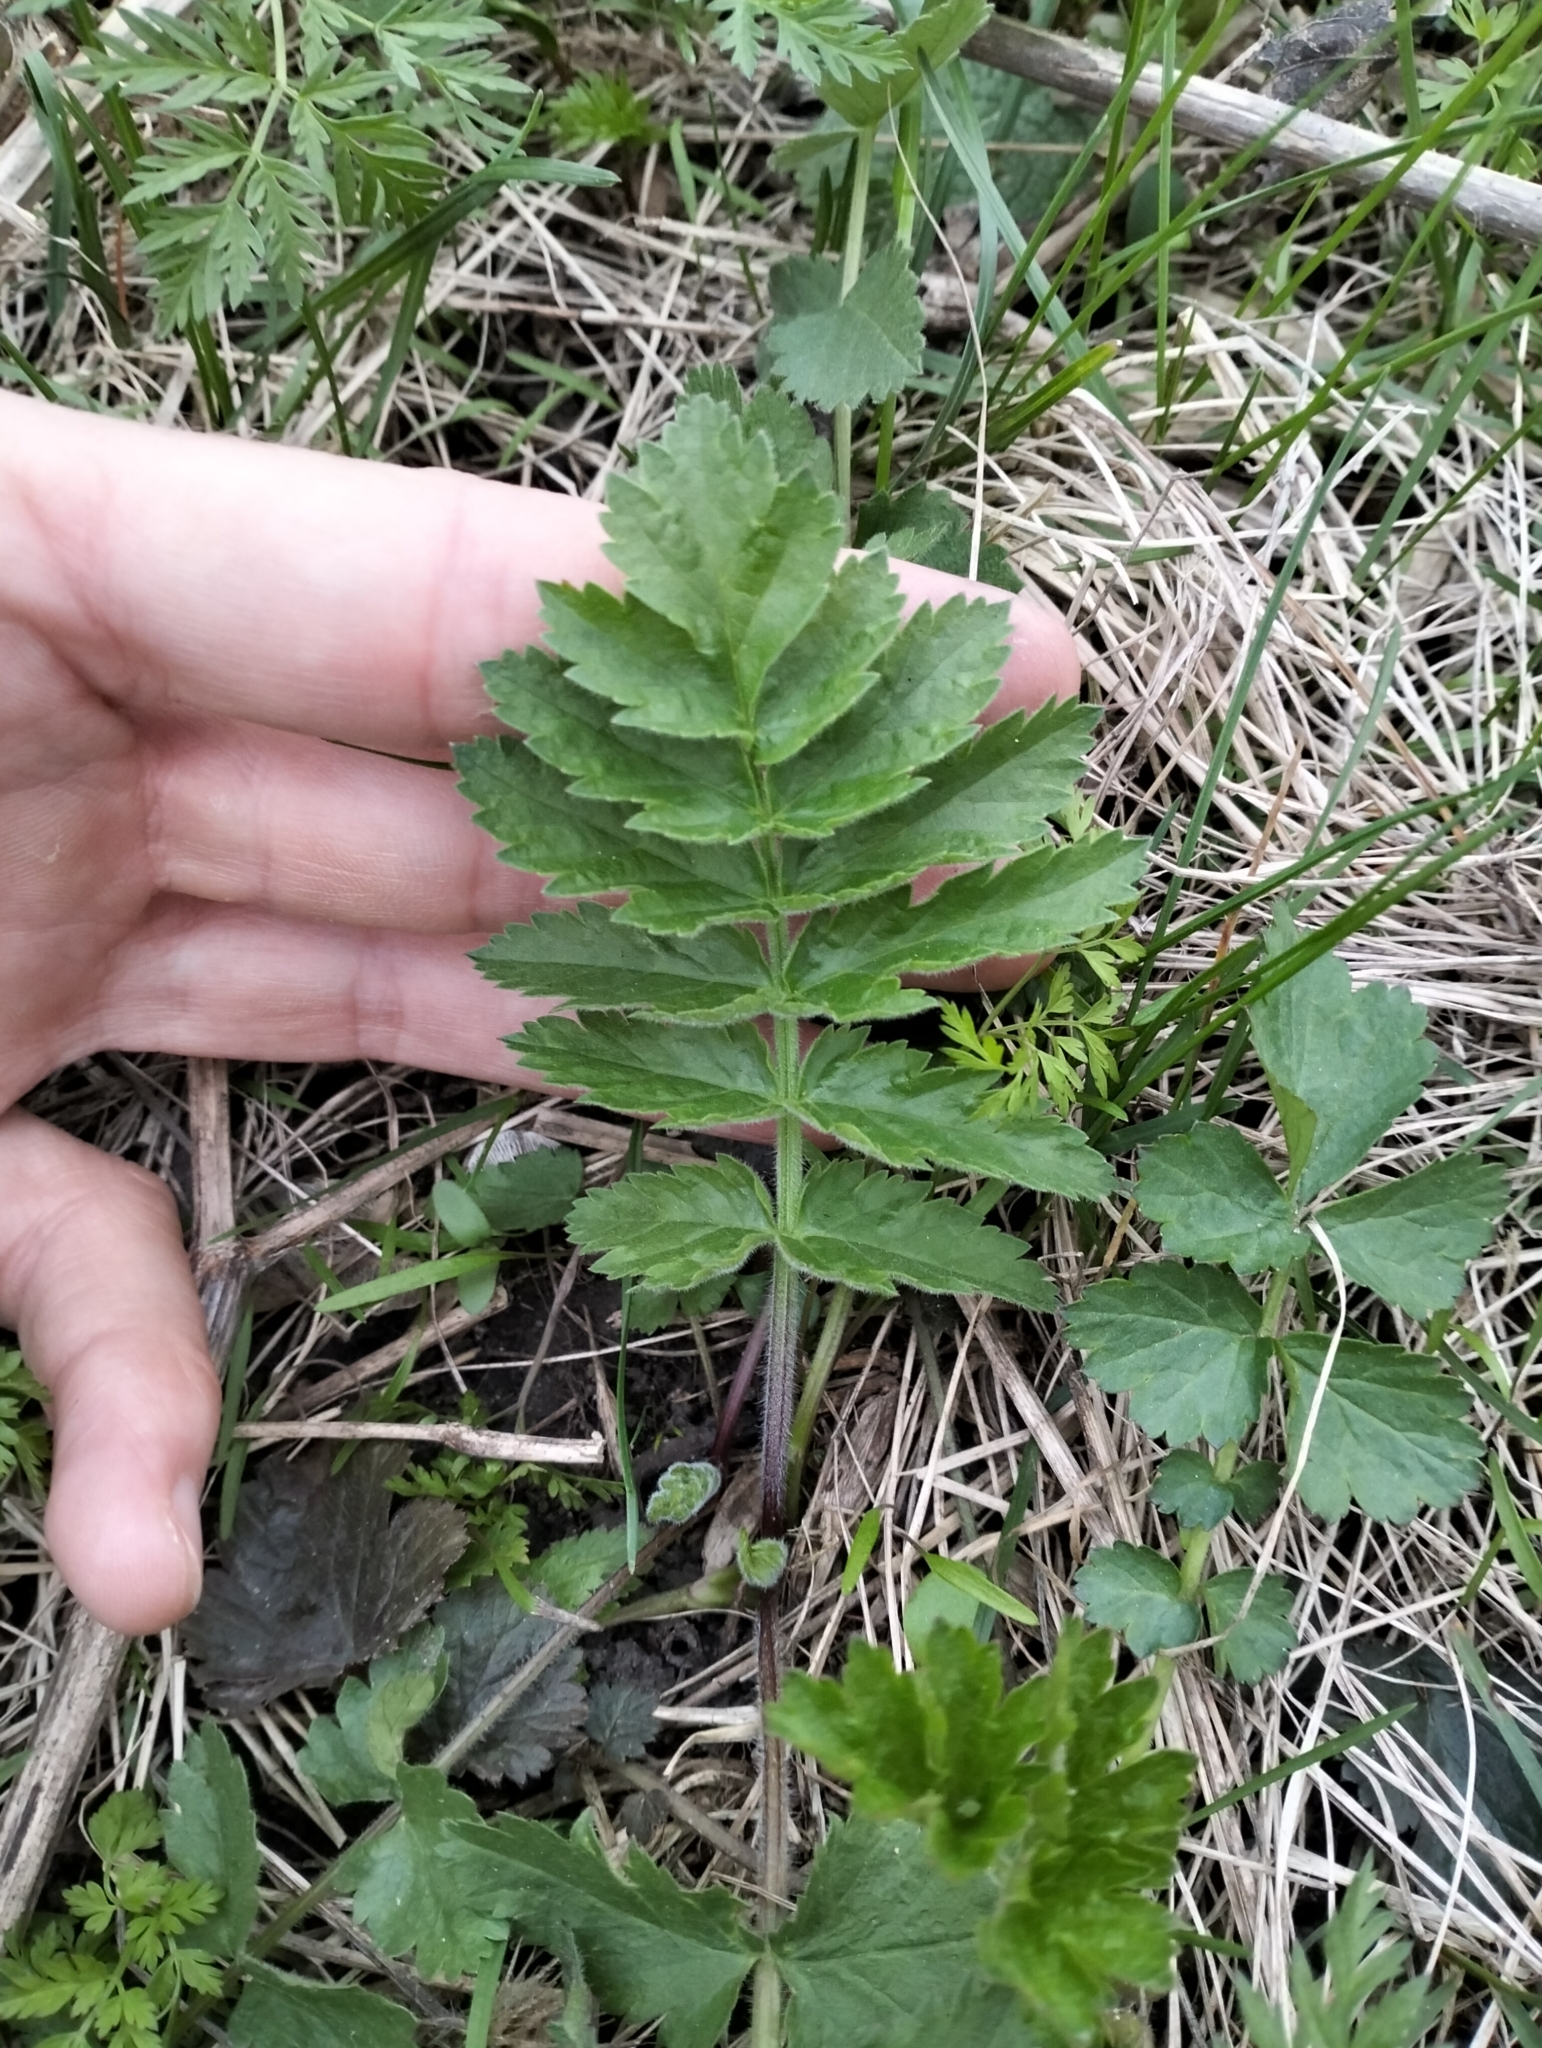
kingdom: Plantae
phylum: Tracheophyta
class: Magnoliopsida
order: Apiales
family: Apiaceae
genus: Pastinaca
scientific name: Pastinaca sativa
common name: Wild parsnip
